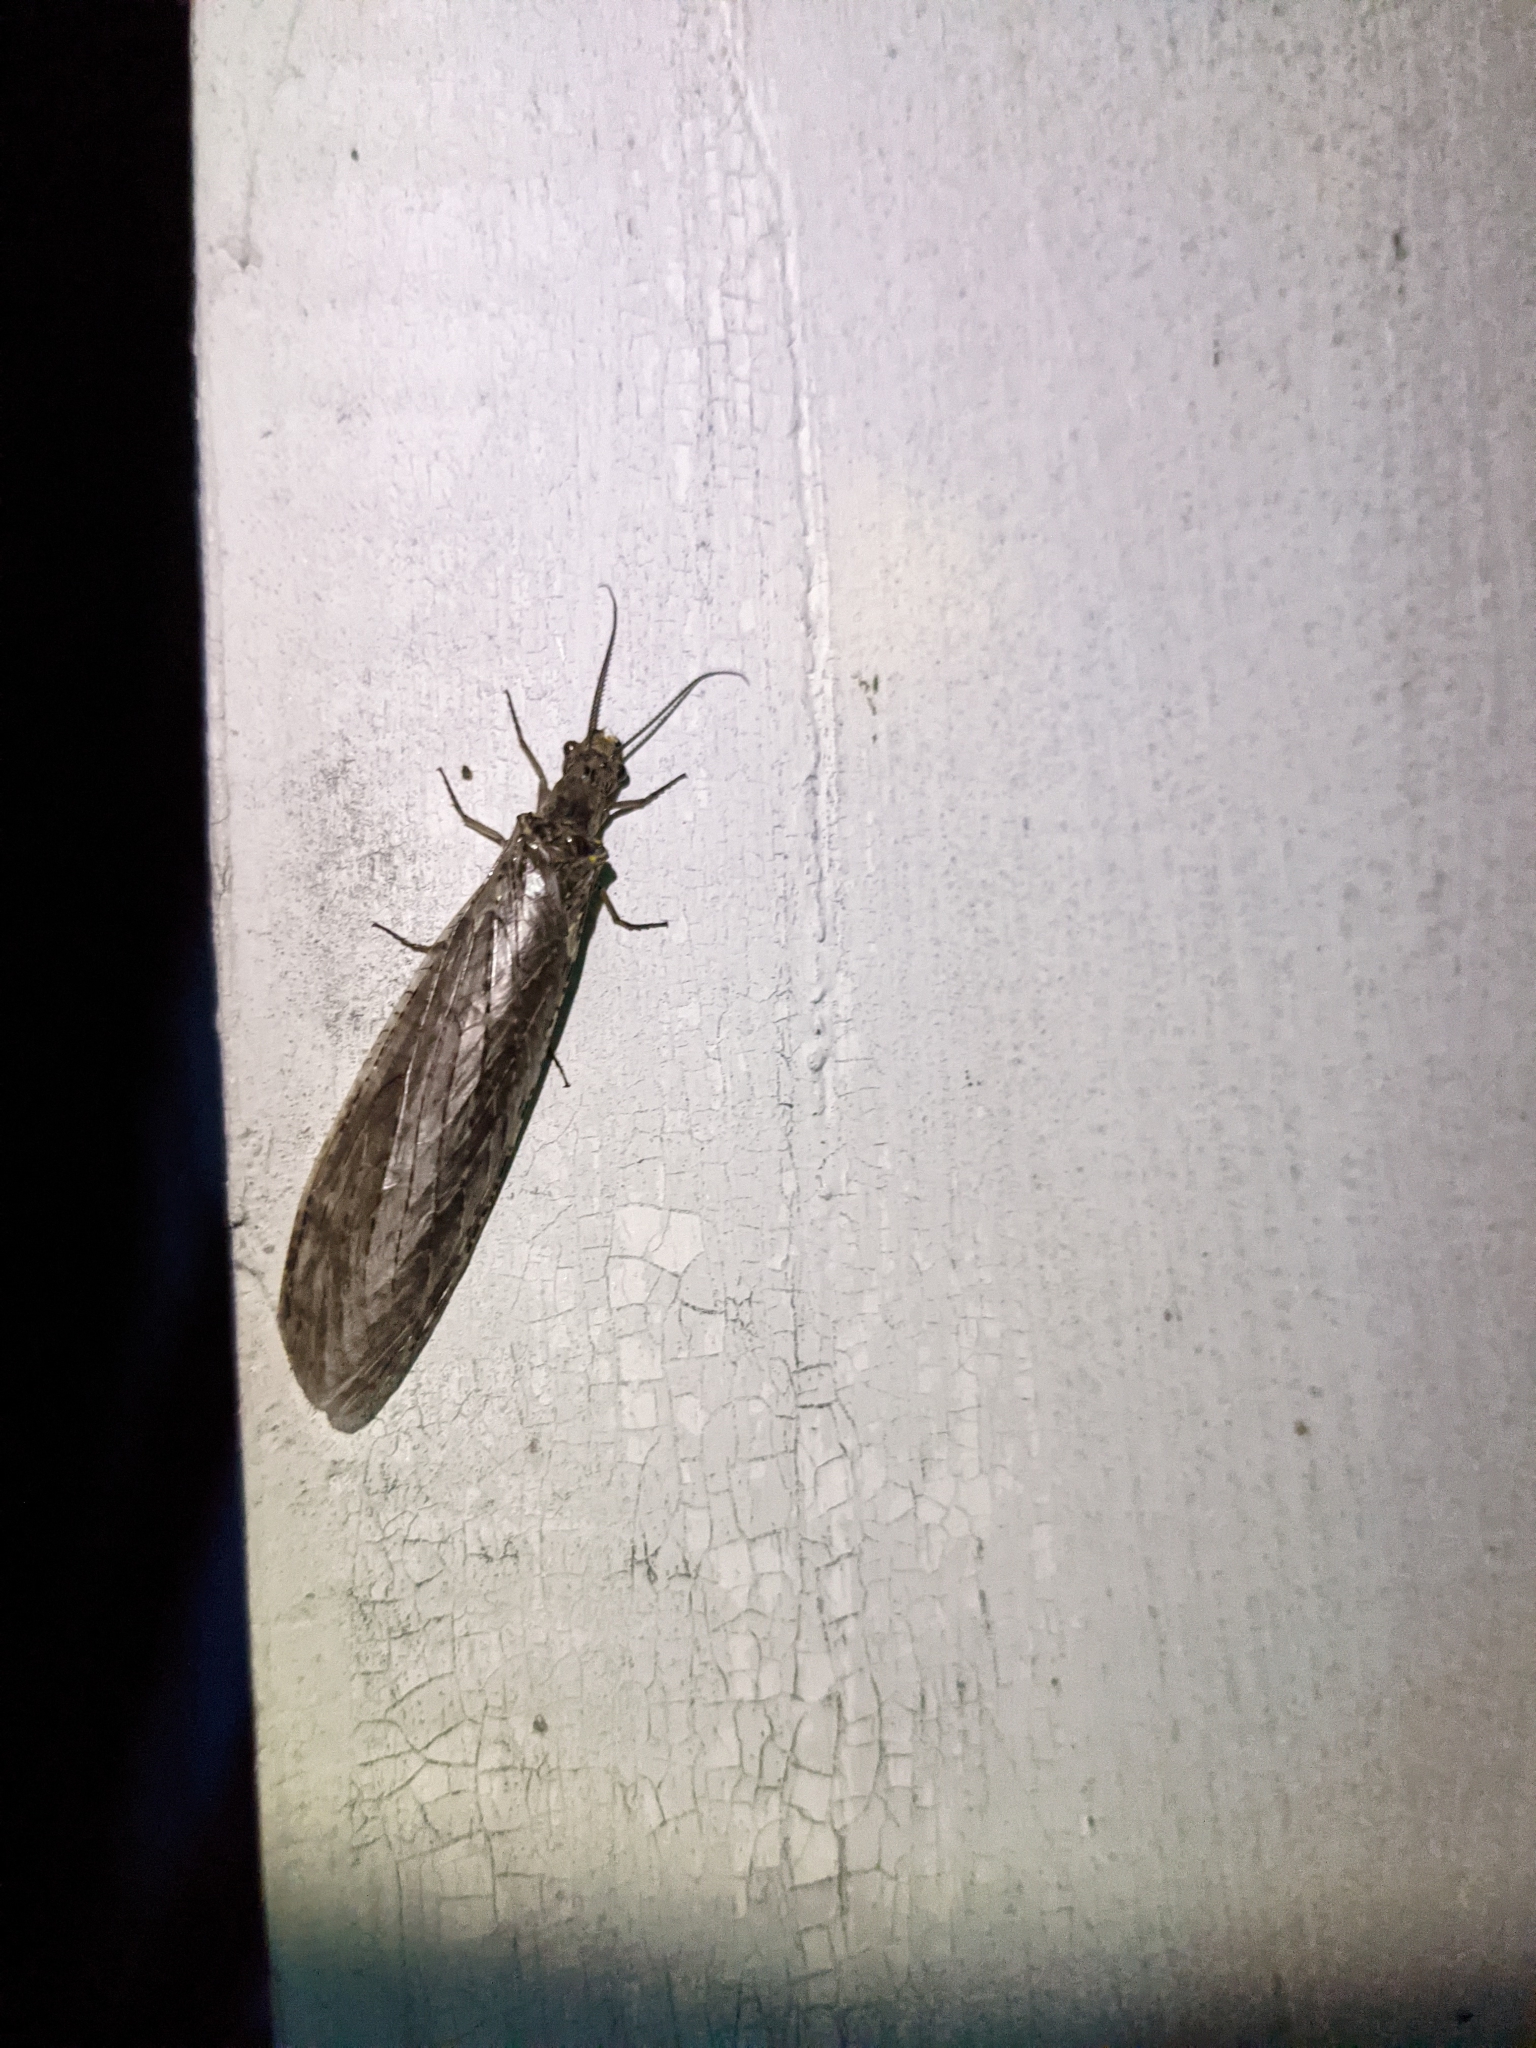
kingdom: Animalia
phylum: Arthropoda
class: Insecta
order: Megaloptera
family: Corydalidae
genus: Chauliodes
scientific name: Chauliodes rastricornis
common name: Spring fishfly
